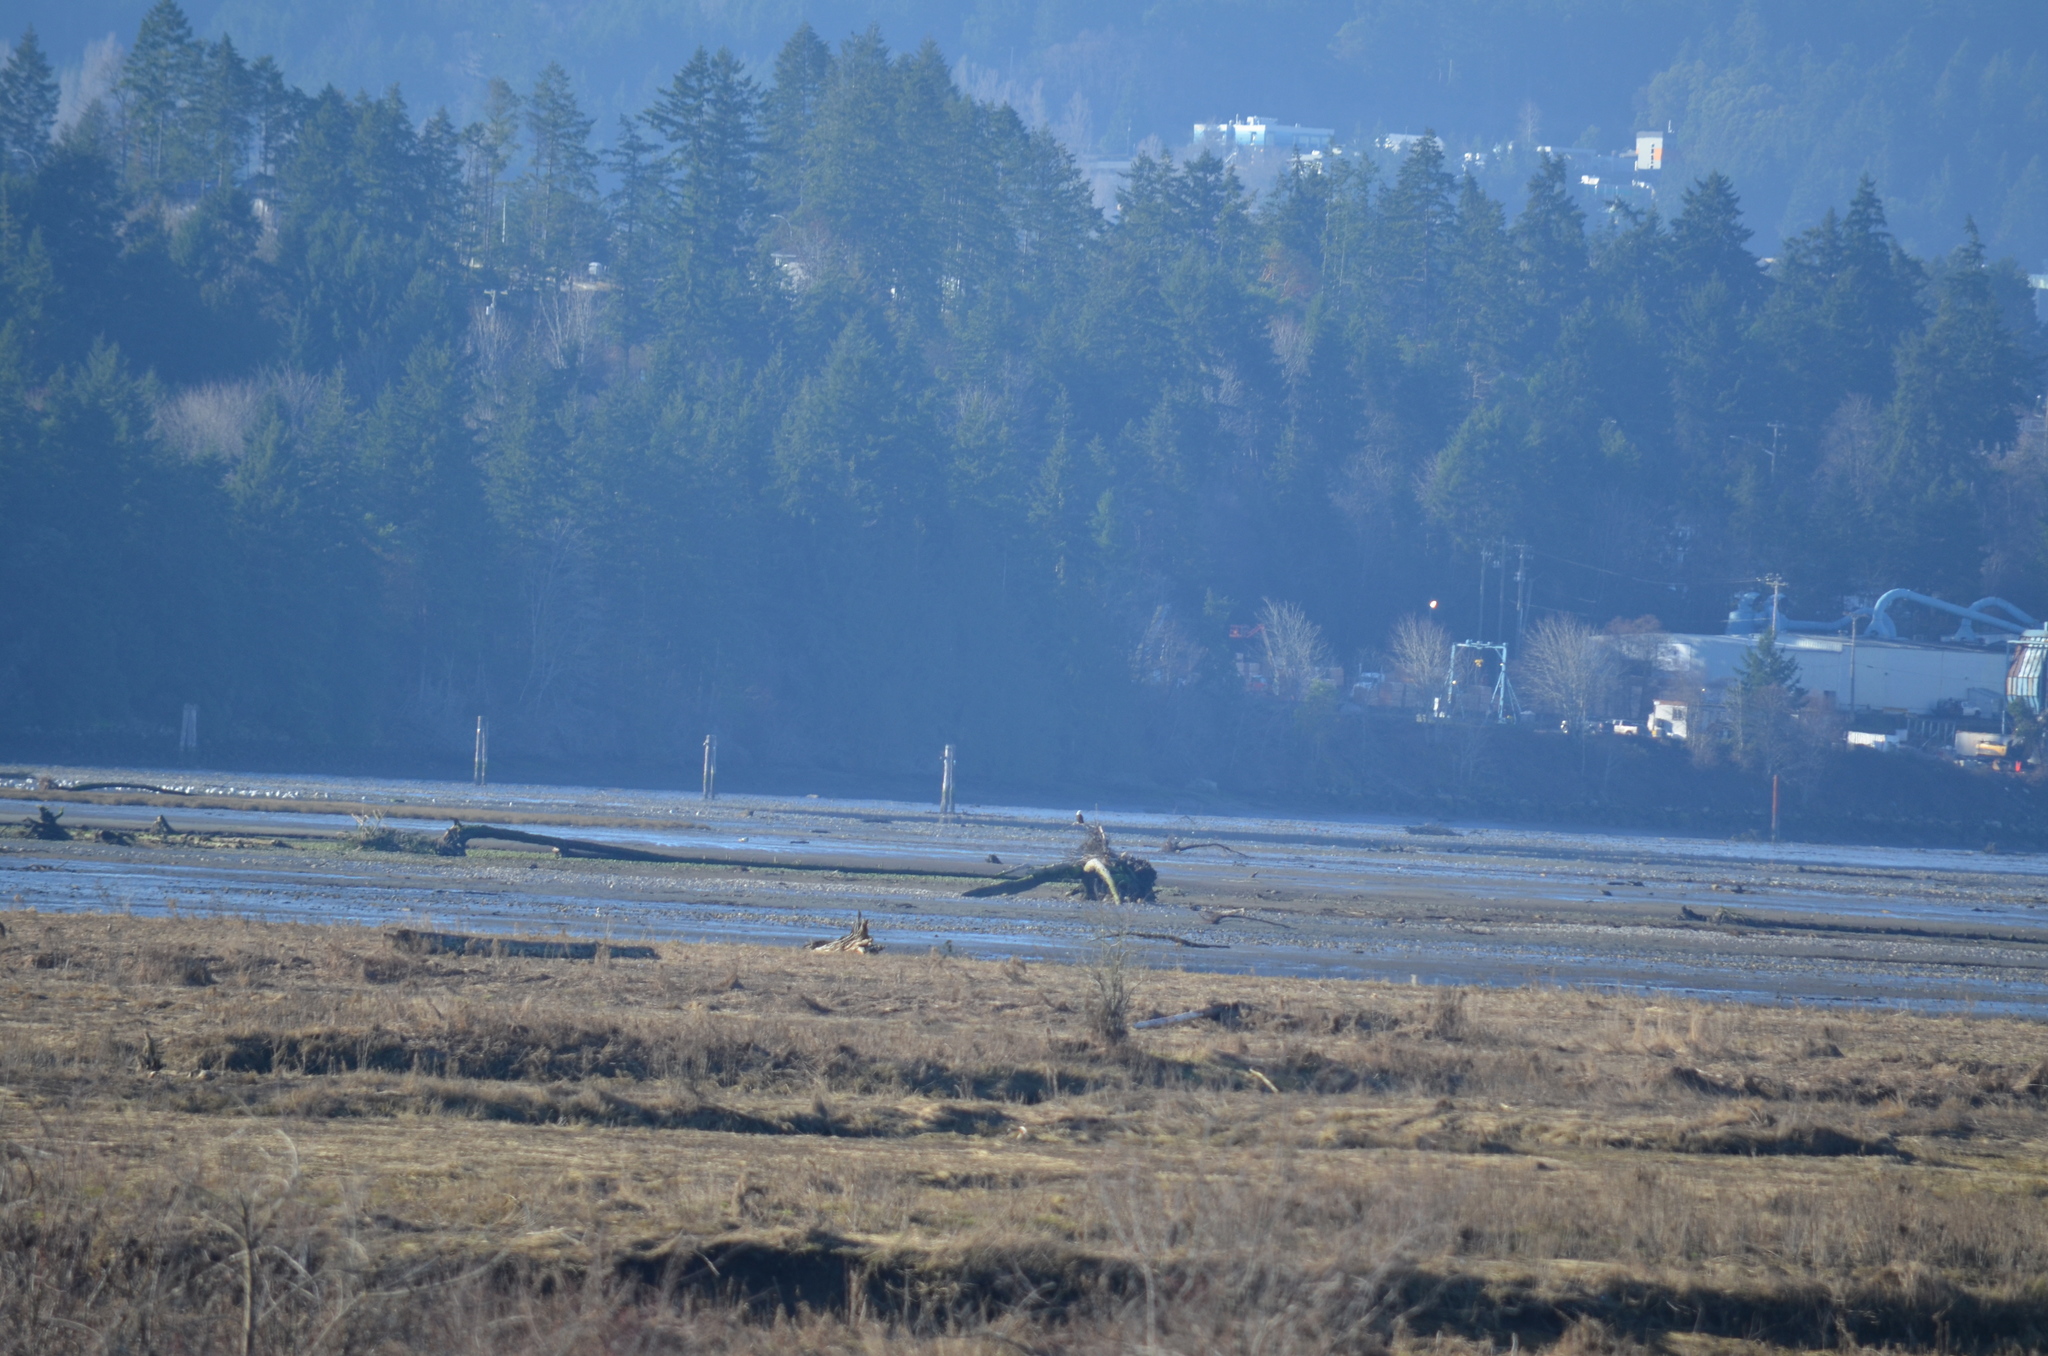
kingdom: Animalia
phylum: Chordata
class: Aves
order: Accipitriformes
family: Accipitridae
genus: Haliaeetus
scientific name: Haliaeetus leucocephalus
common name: Bald eagle
